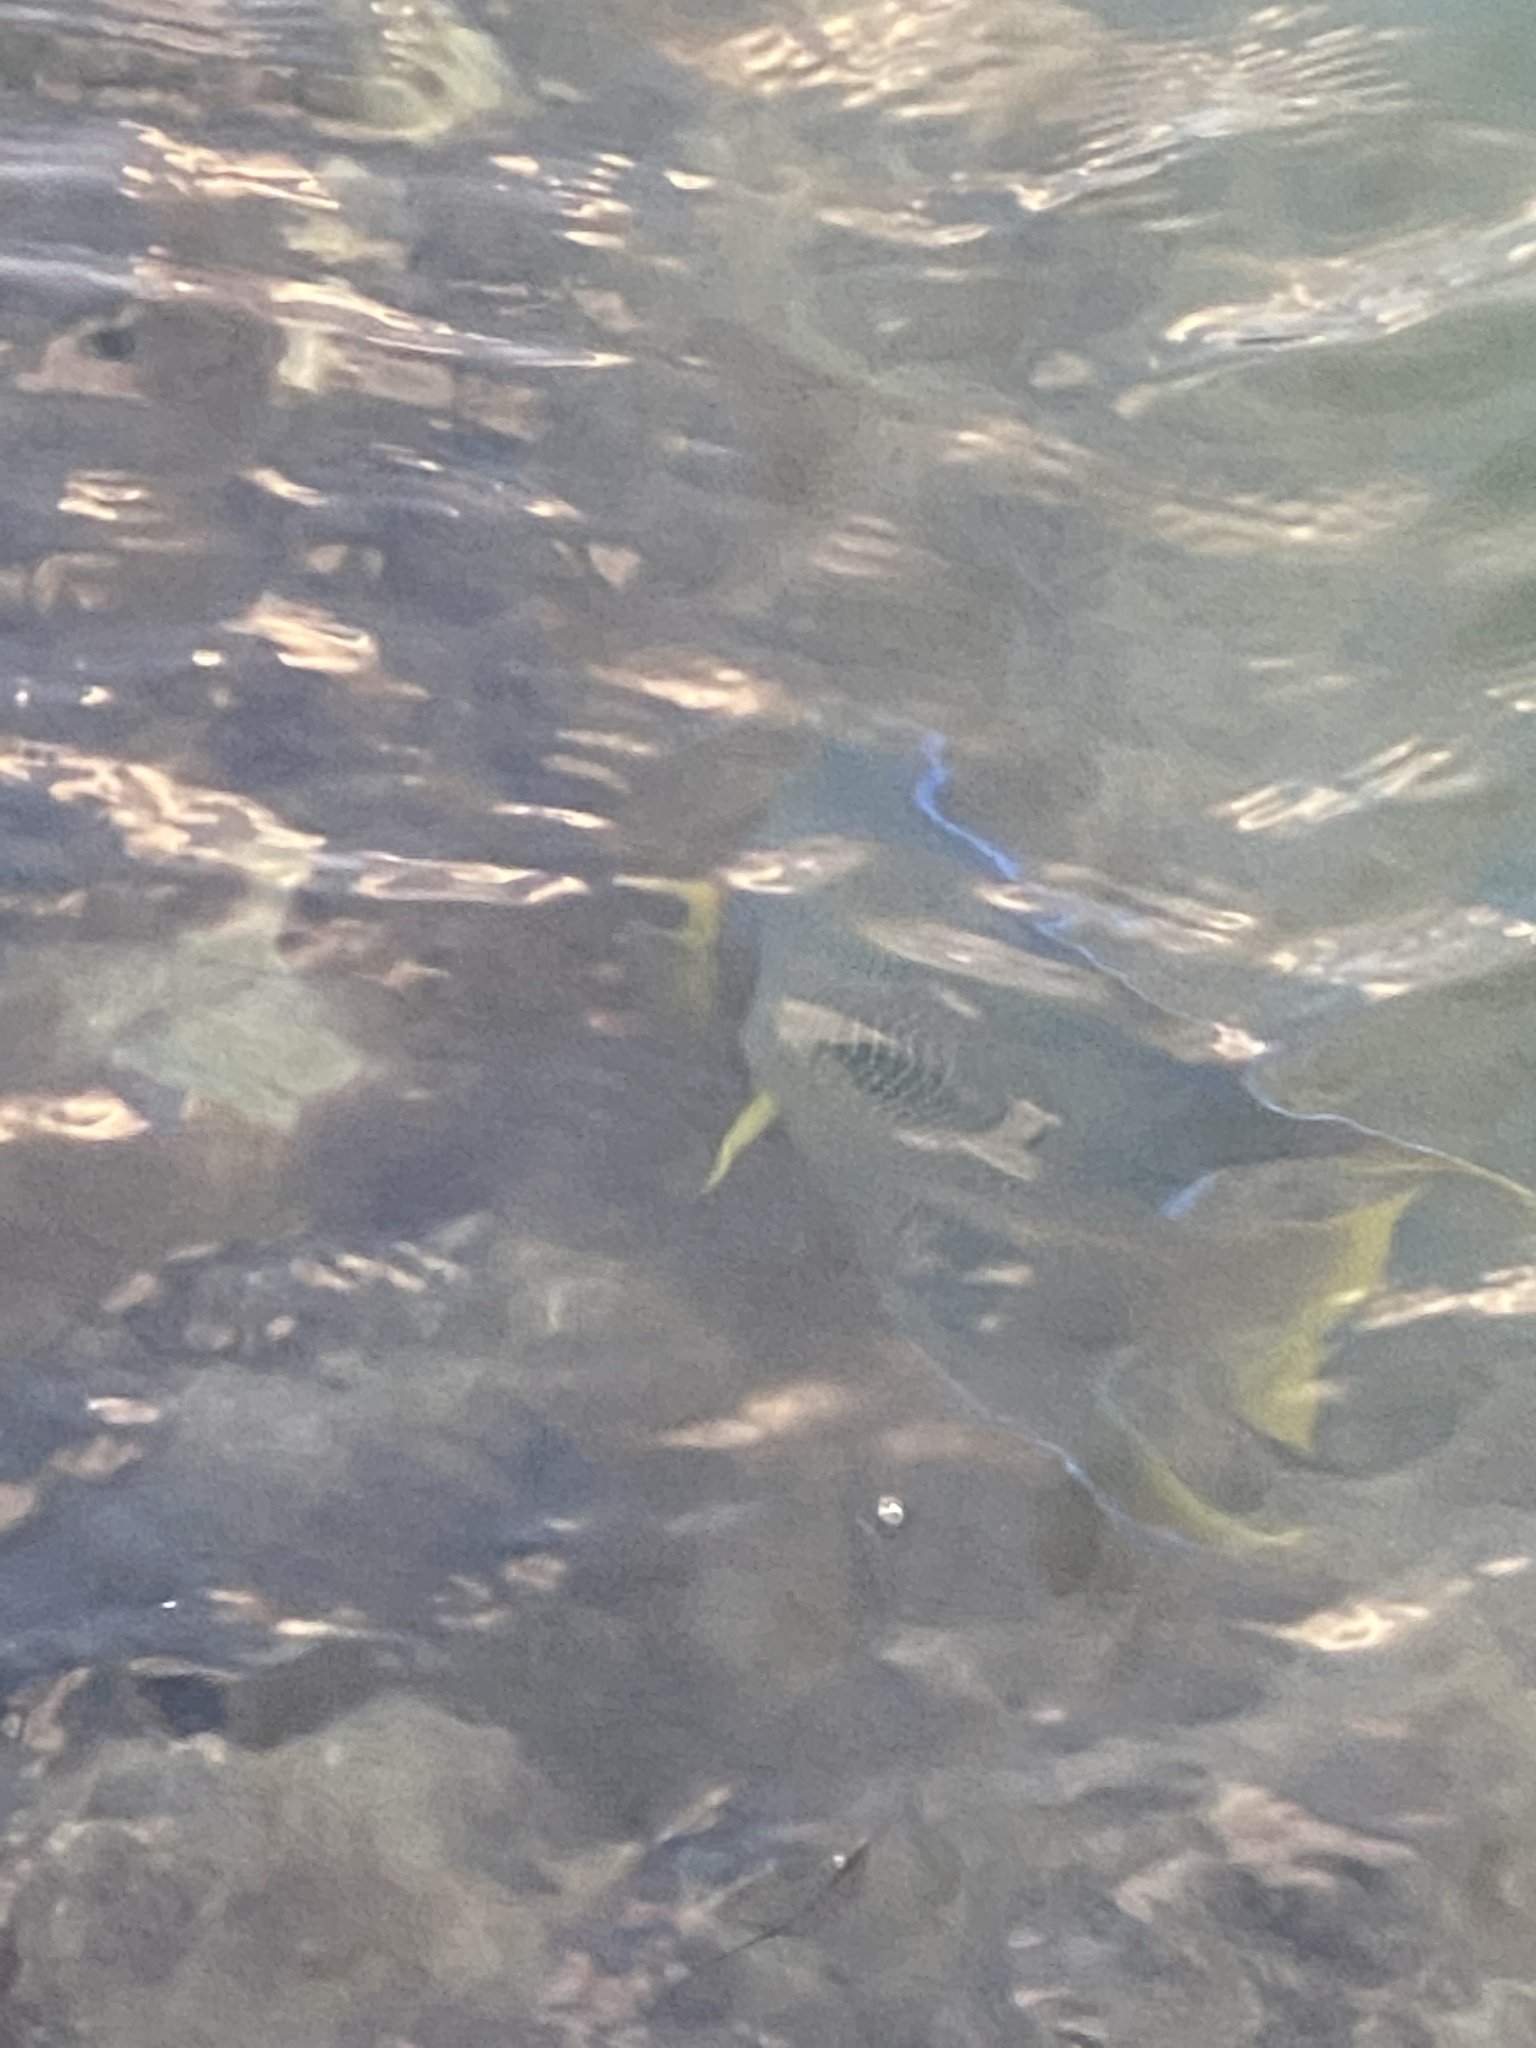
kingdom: Animalia
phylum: Chordata
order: Perciformes
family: Pomacanthidae
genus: Holacanthus
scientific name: Holacanthus ciliaris
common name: Queen angelfish
